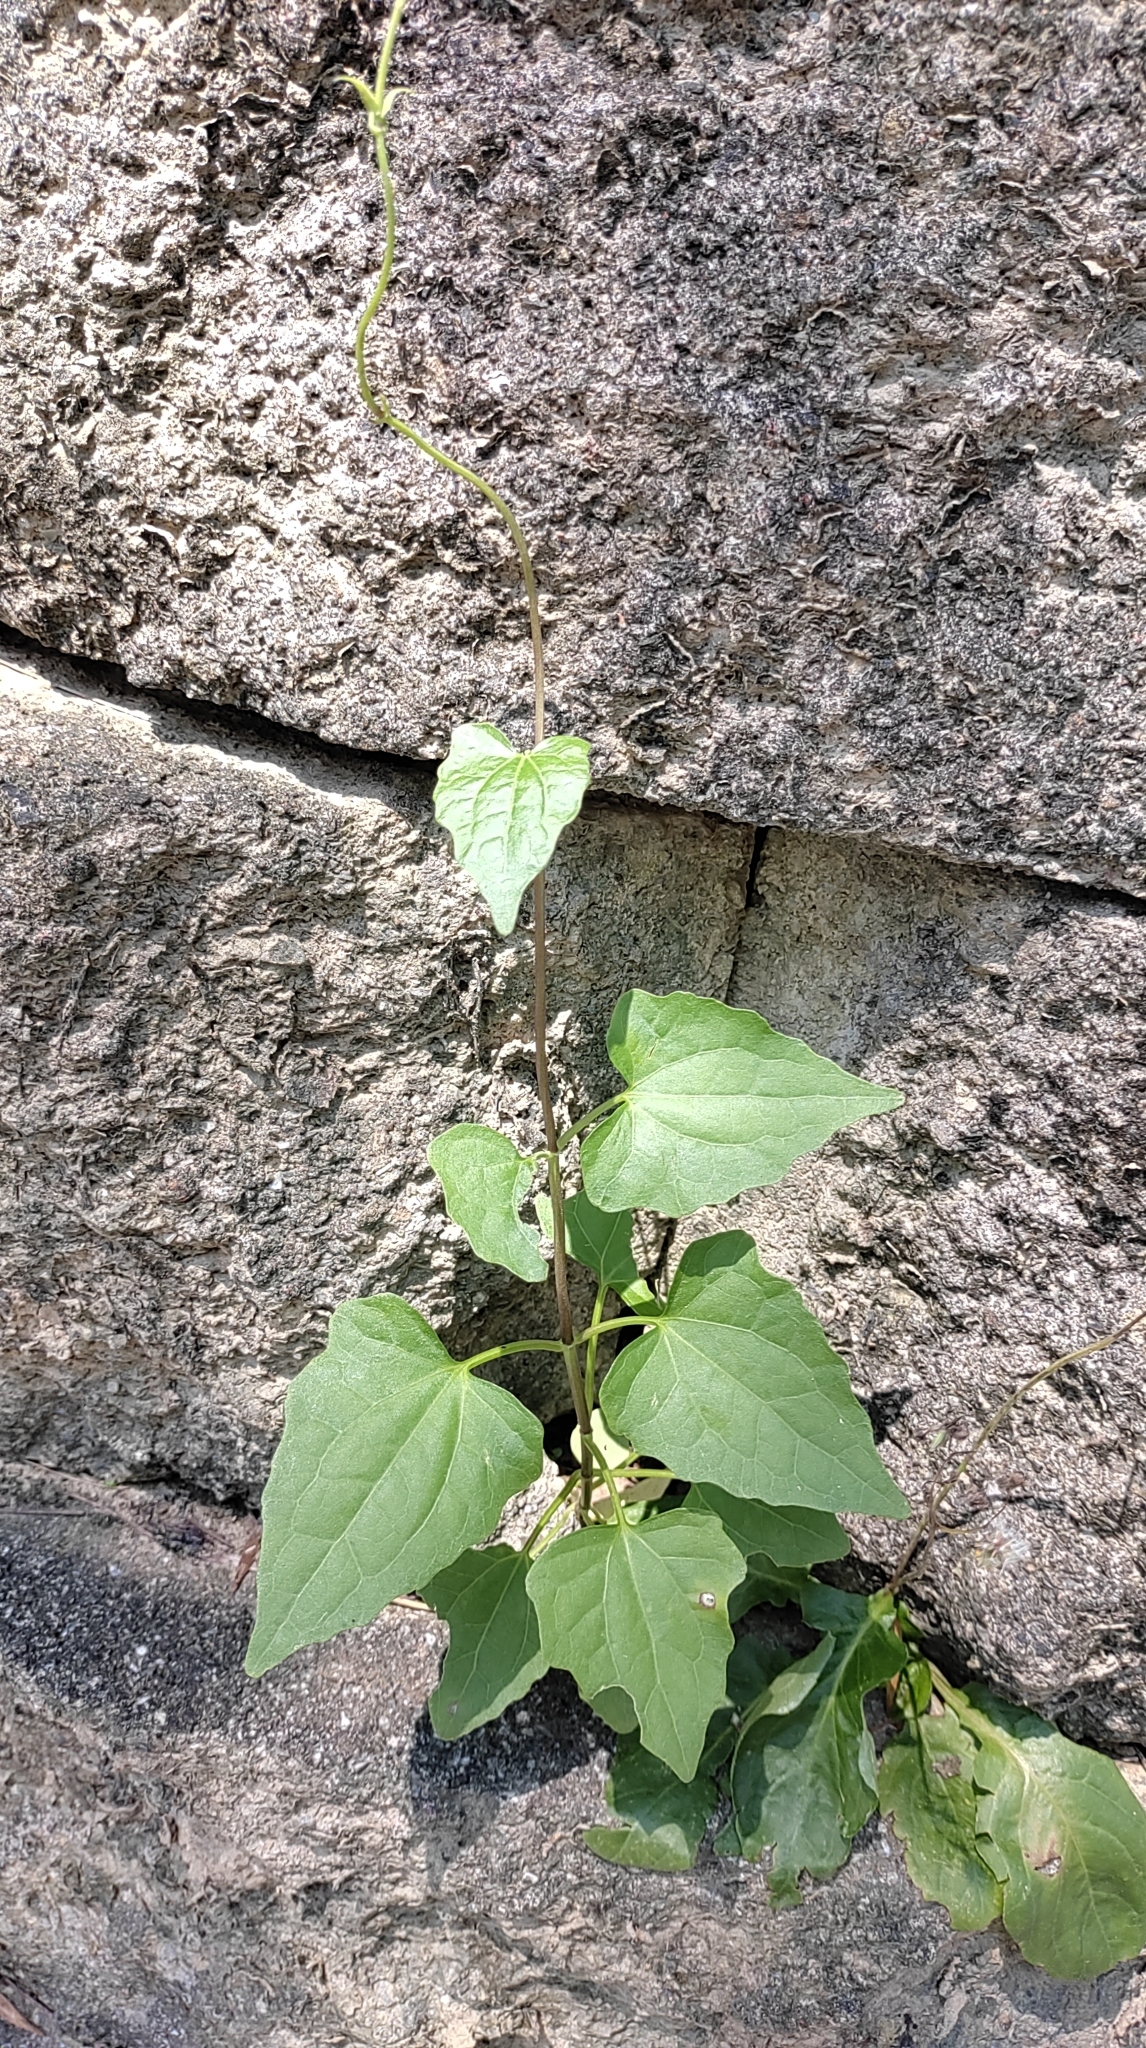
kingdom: Plantae
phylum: Tracheophyta
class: Magnoliopsida
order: Asterales
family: Asteraceae
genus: Mikania
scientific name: Mikania micrantha
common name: Mile-a-minute
